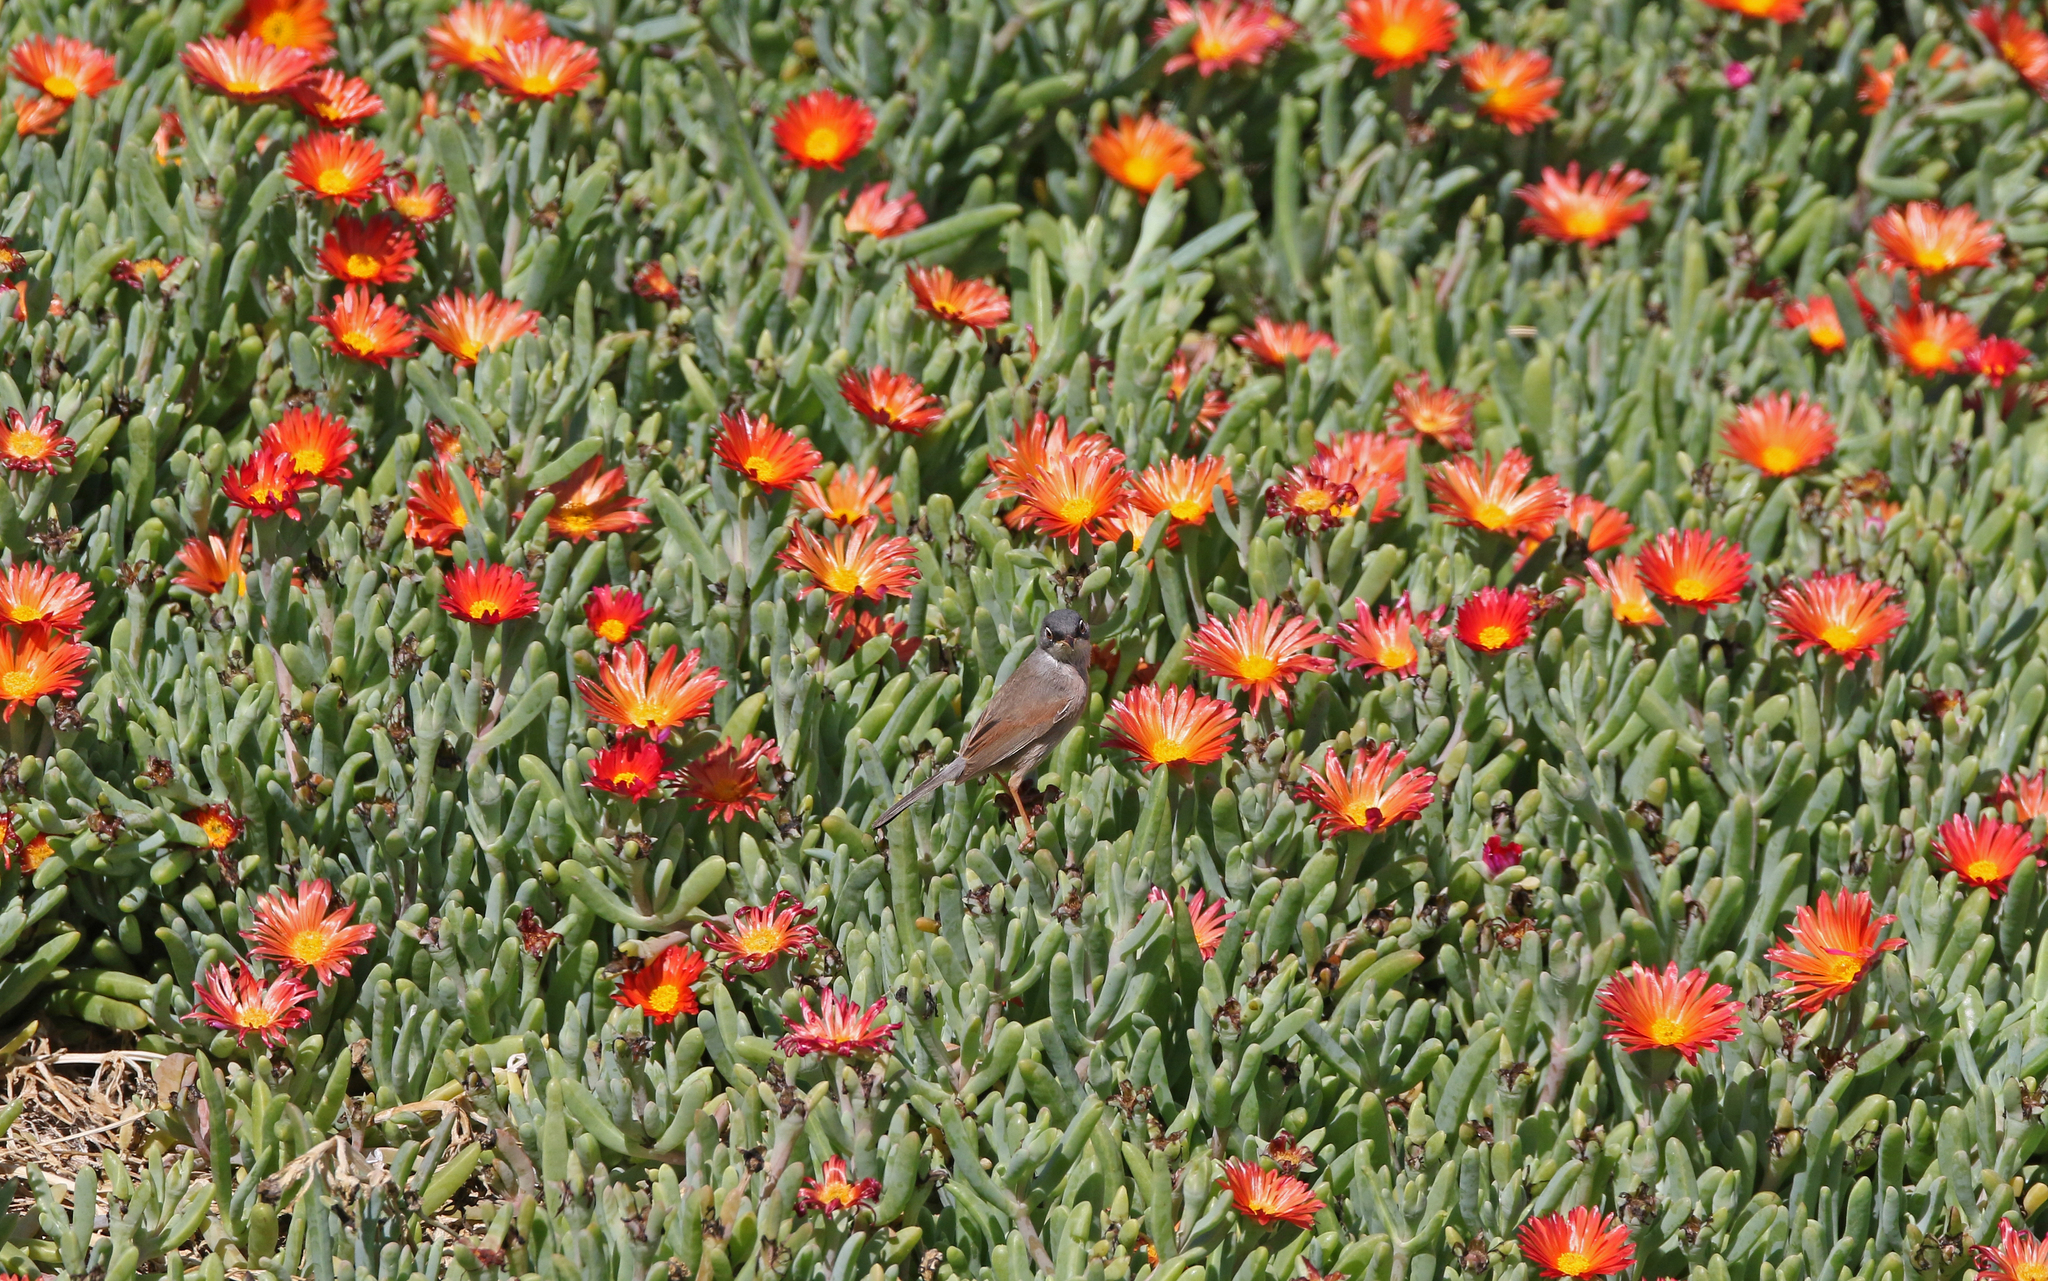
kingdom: Animalia
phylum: Chordata
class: Aves
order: Passeriformes
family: Sylviidae
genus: Sylvia
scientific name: Sylvia conspicillata
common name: Spectacled warbler
